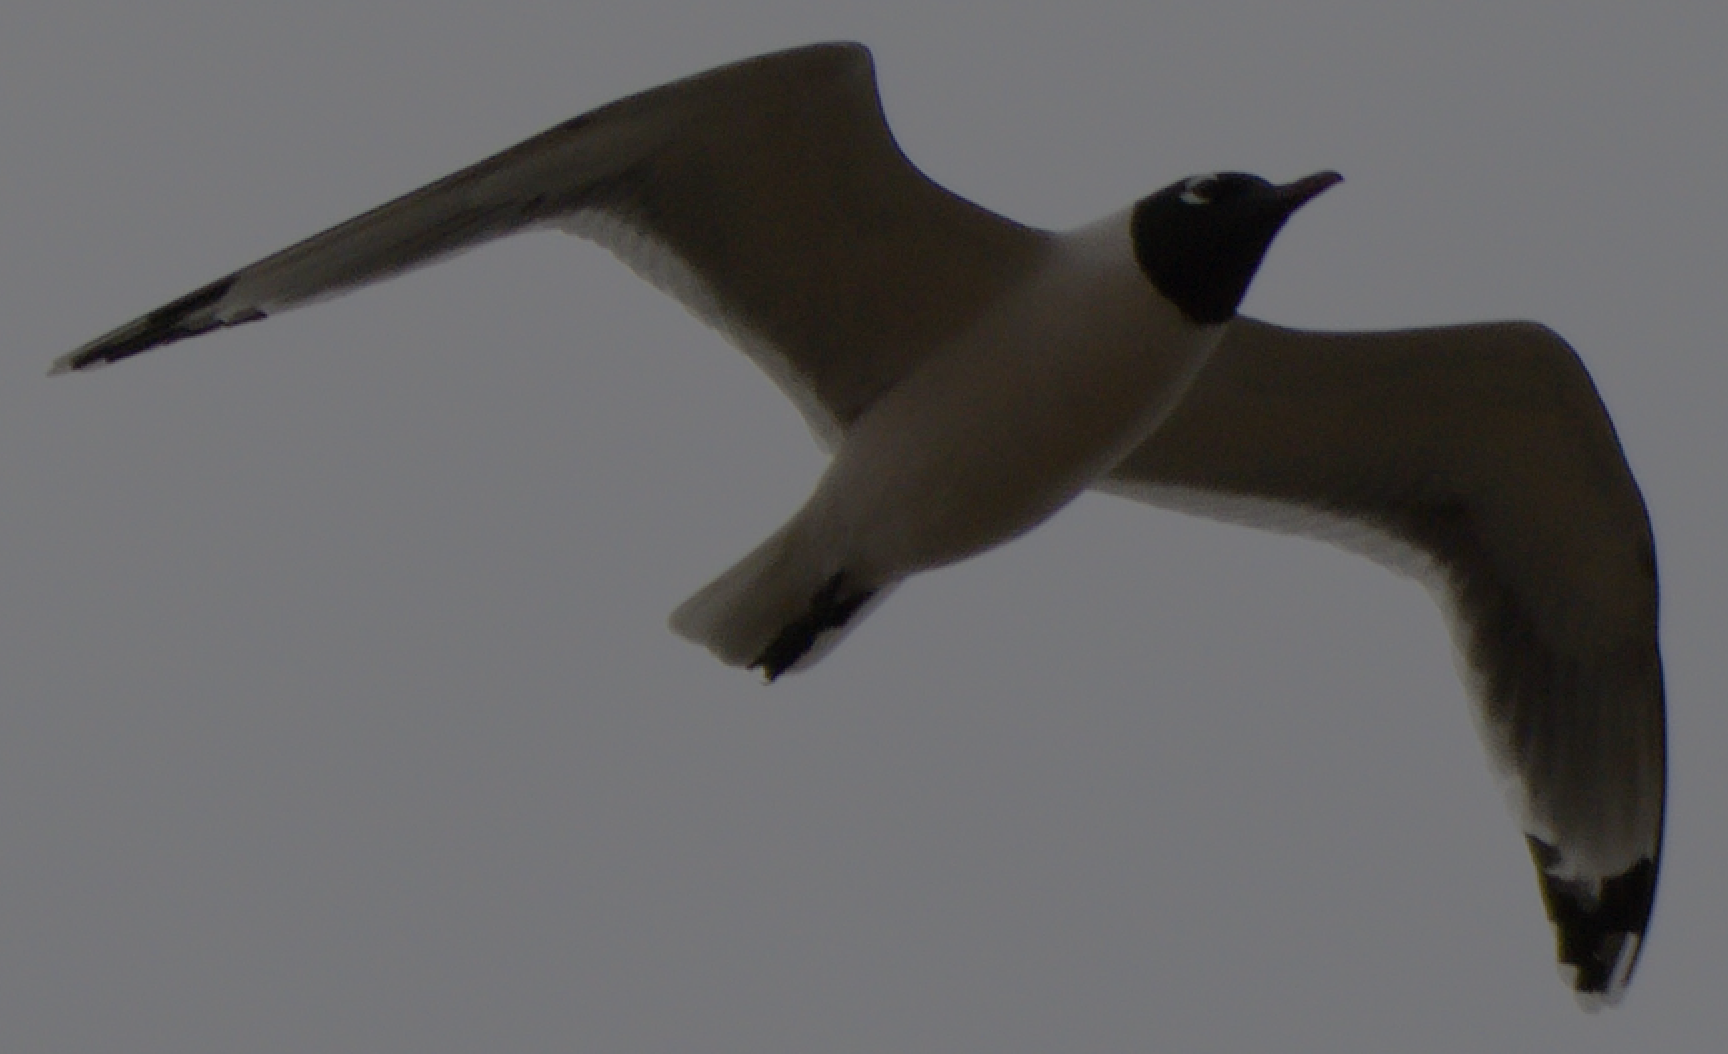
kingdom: Animalia
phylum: Chordata
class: Aves
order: Charadriiformes
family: Laridae
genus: Leucophaeus
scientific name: Leucophaeus pipixcan
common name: Franklin's gull
